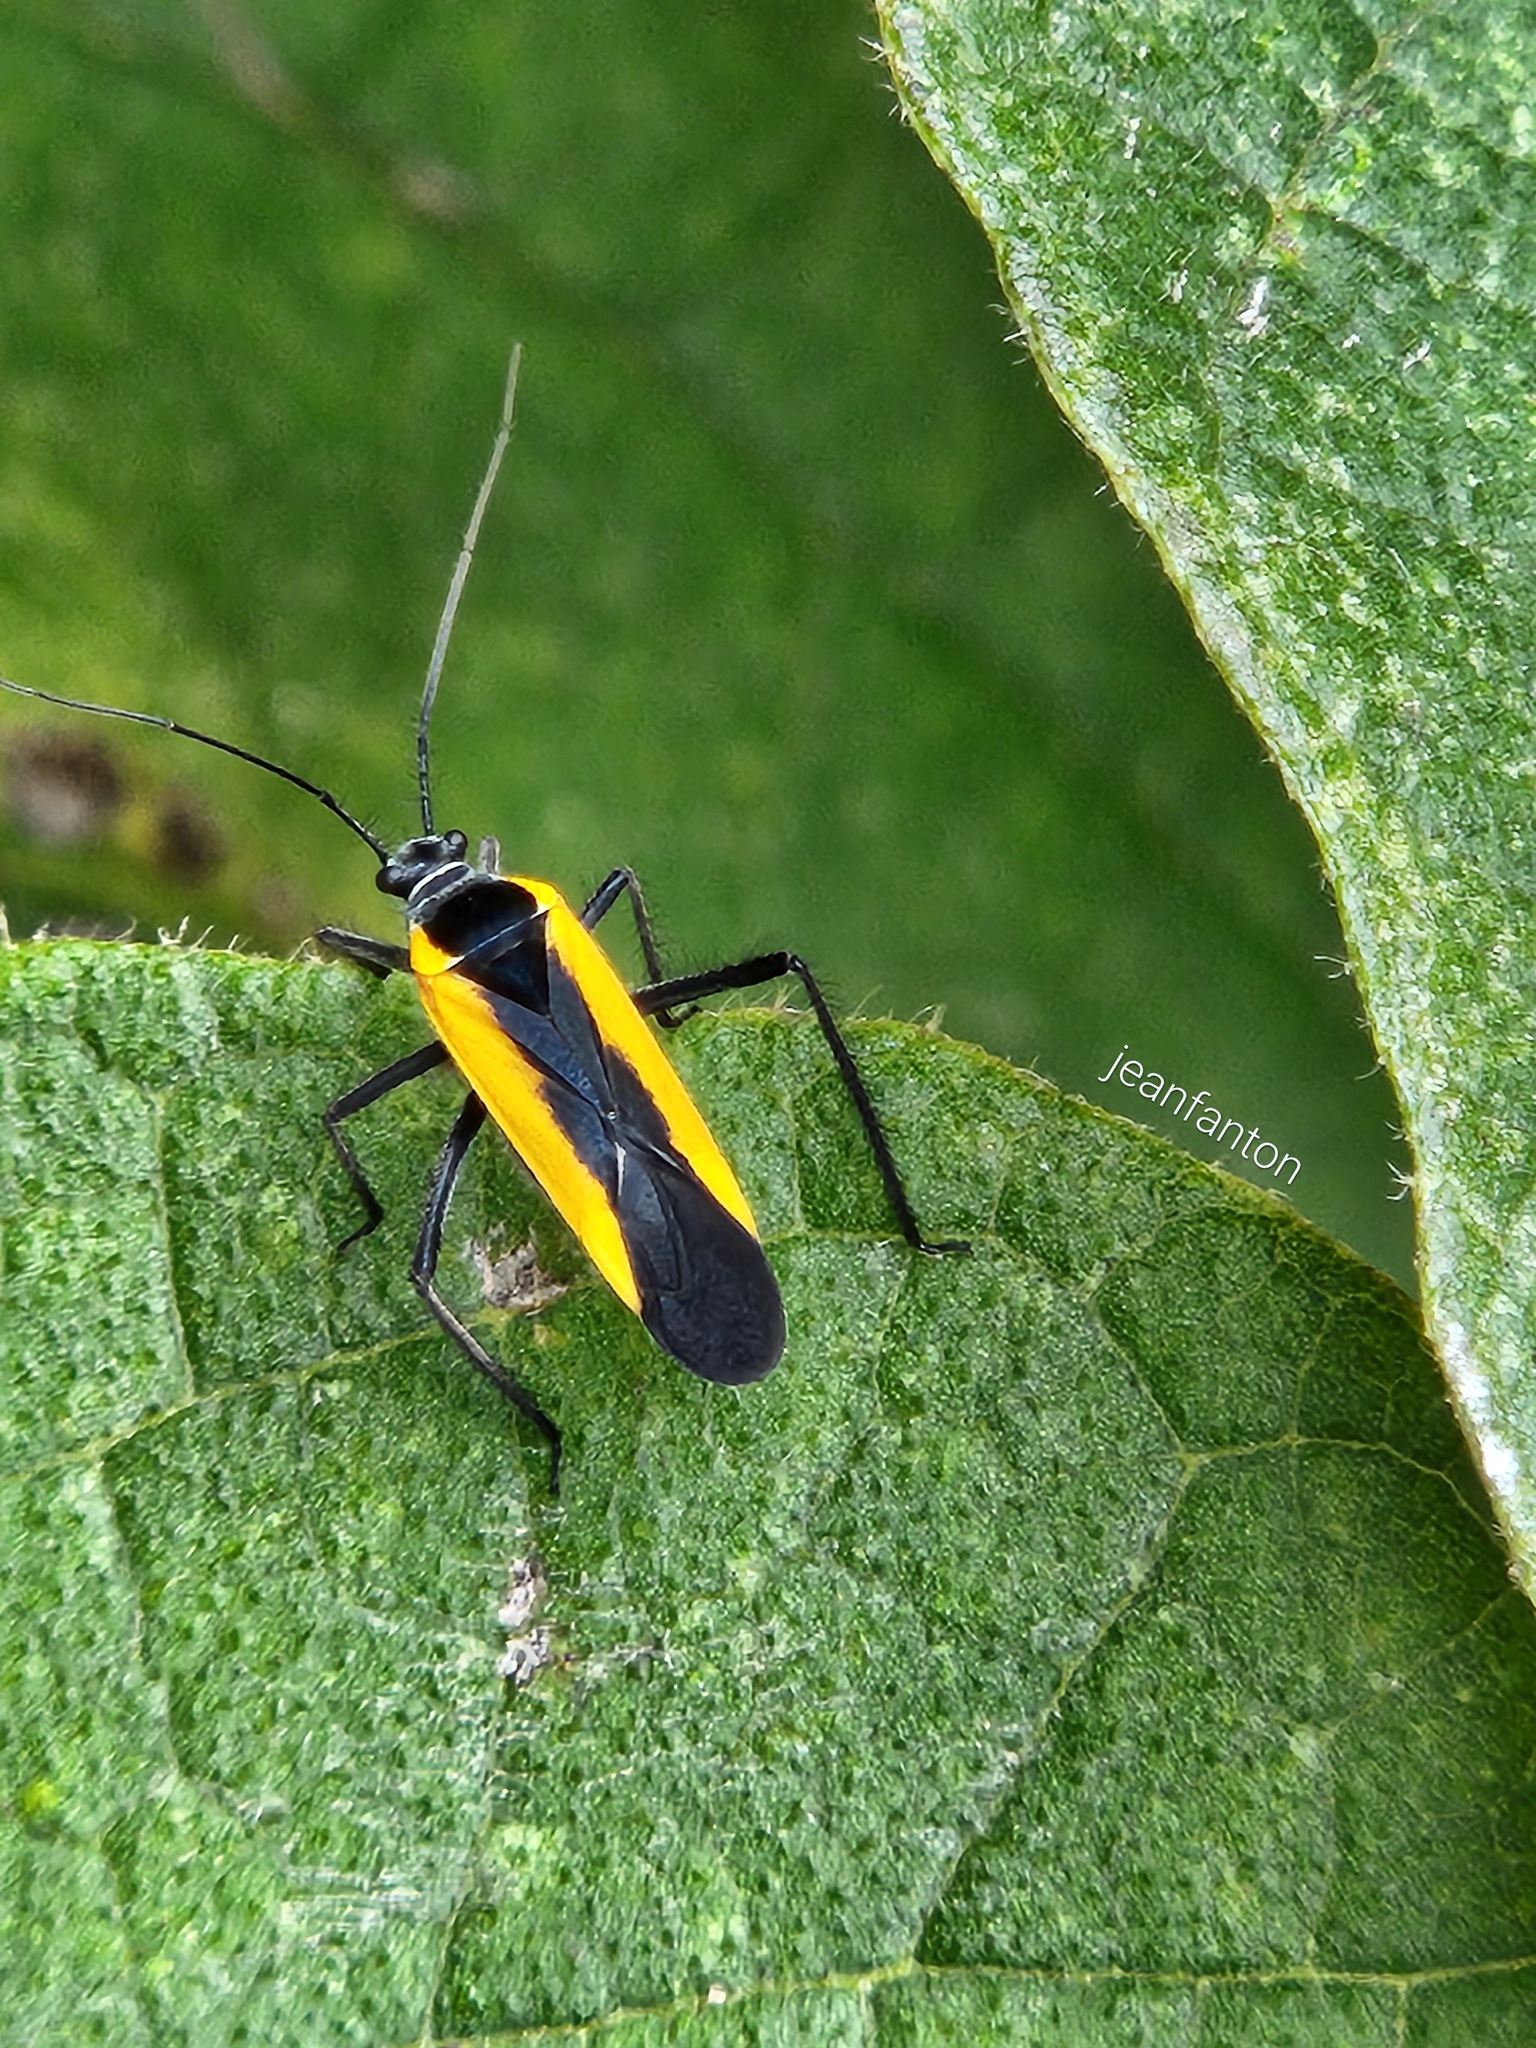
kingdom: Animalia
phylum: Arthropoda
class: Insecta
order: Hemiptera
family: Miridae
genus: Mabelia
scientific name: Mabelia pulcherrima
